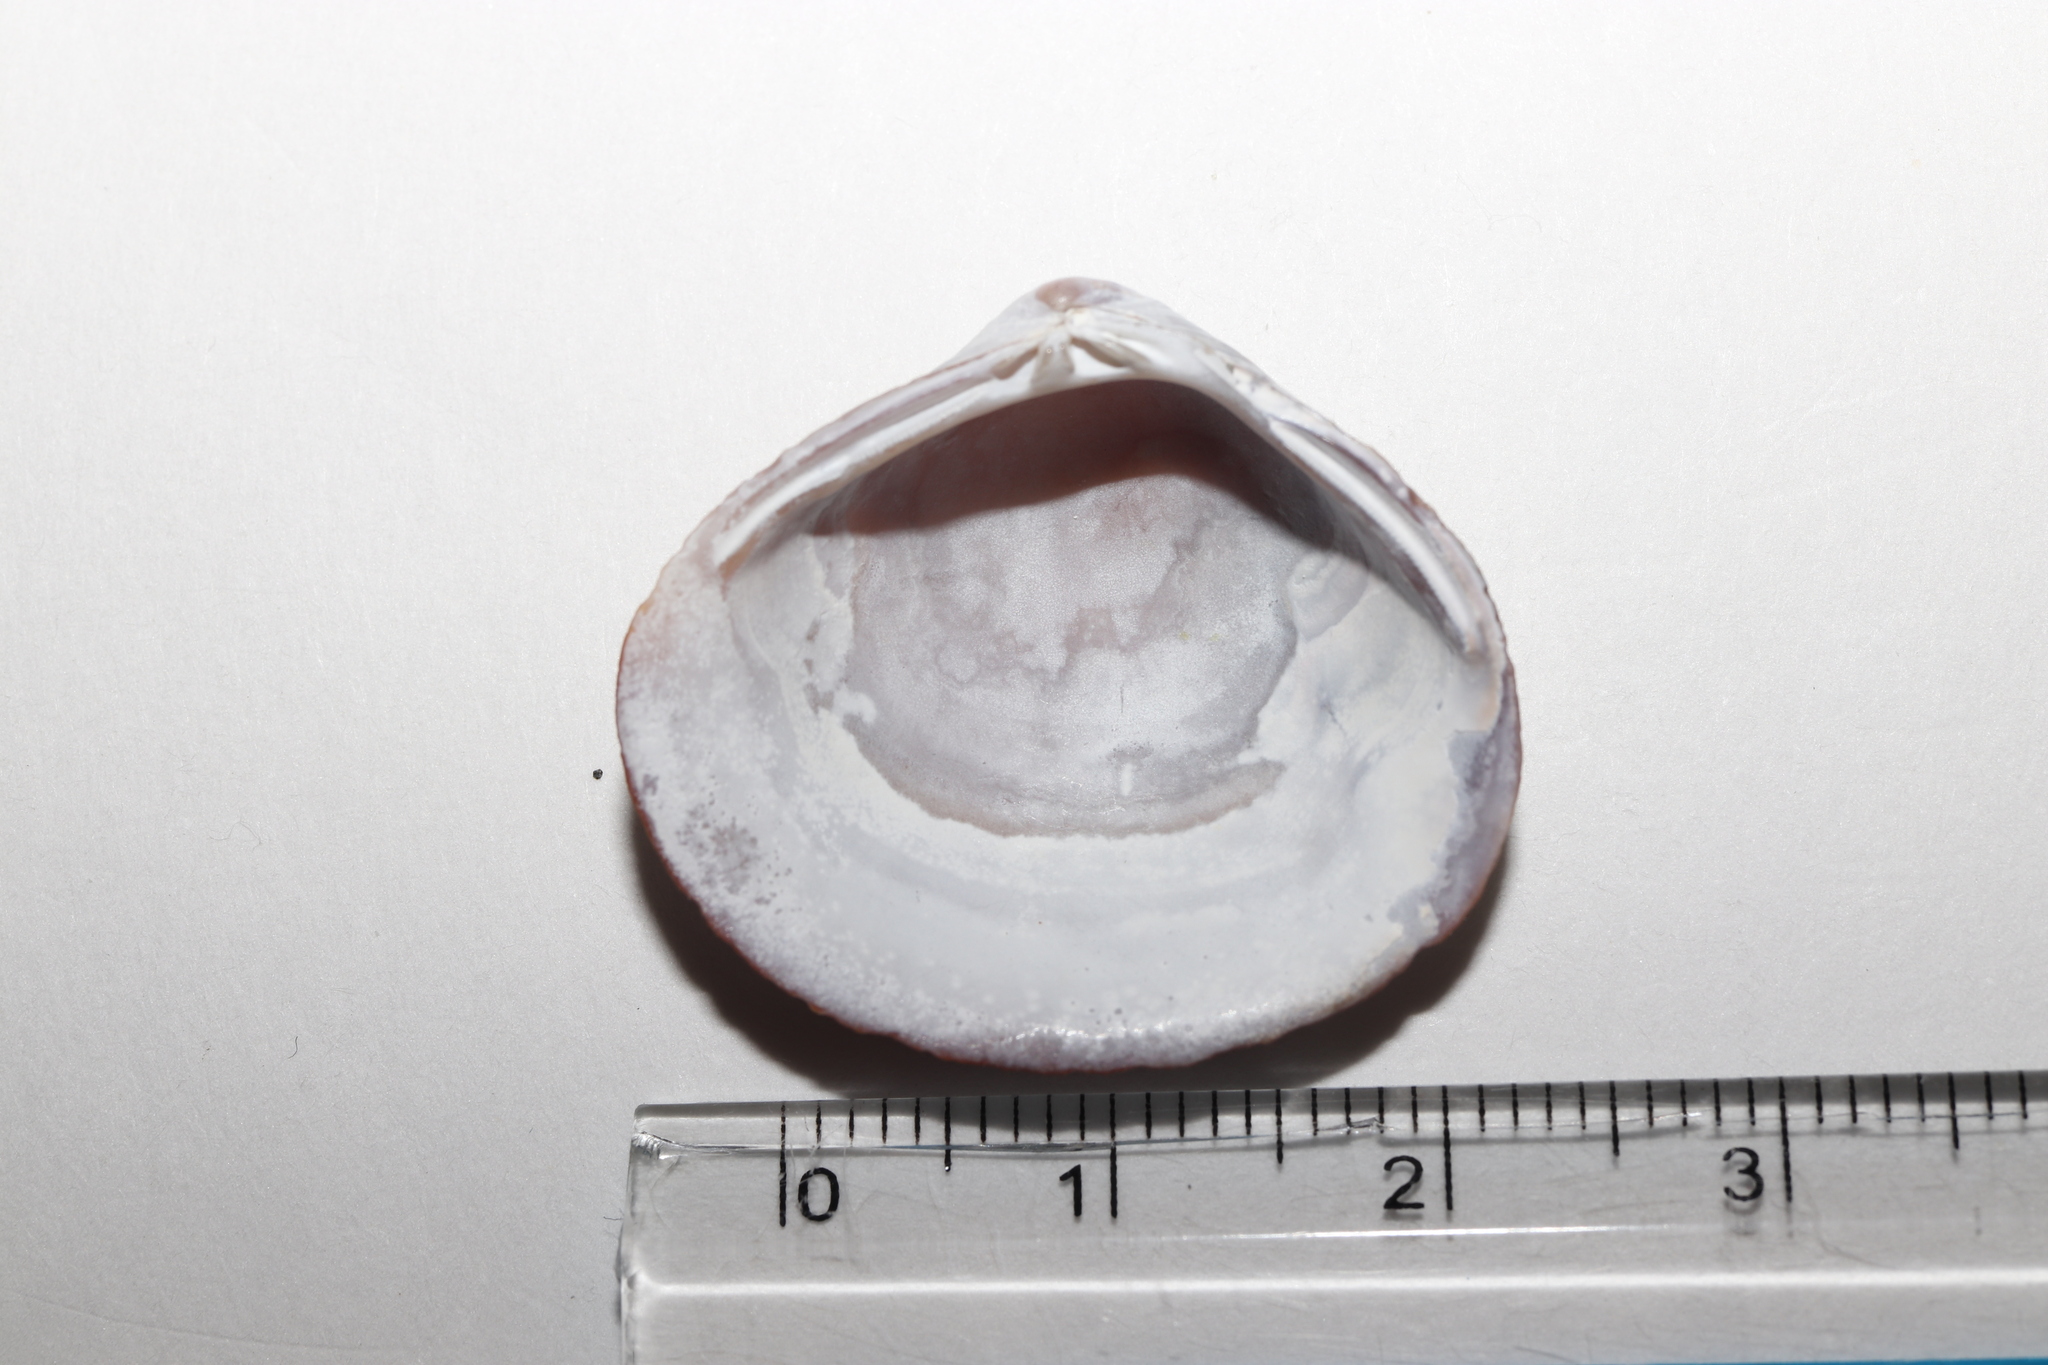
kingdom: Animalia
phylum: Mollusca
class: Bivalvia
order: Venerida
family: Cyrenidae
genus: Corbicula
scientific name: Corbicula japonica
